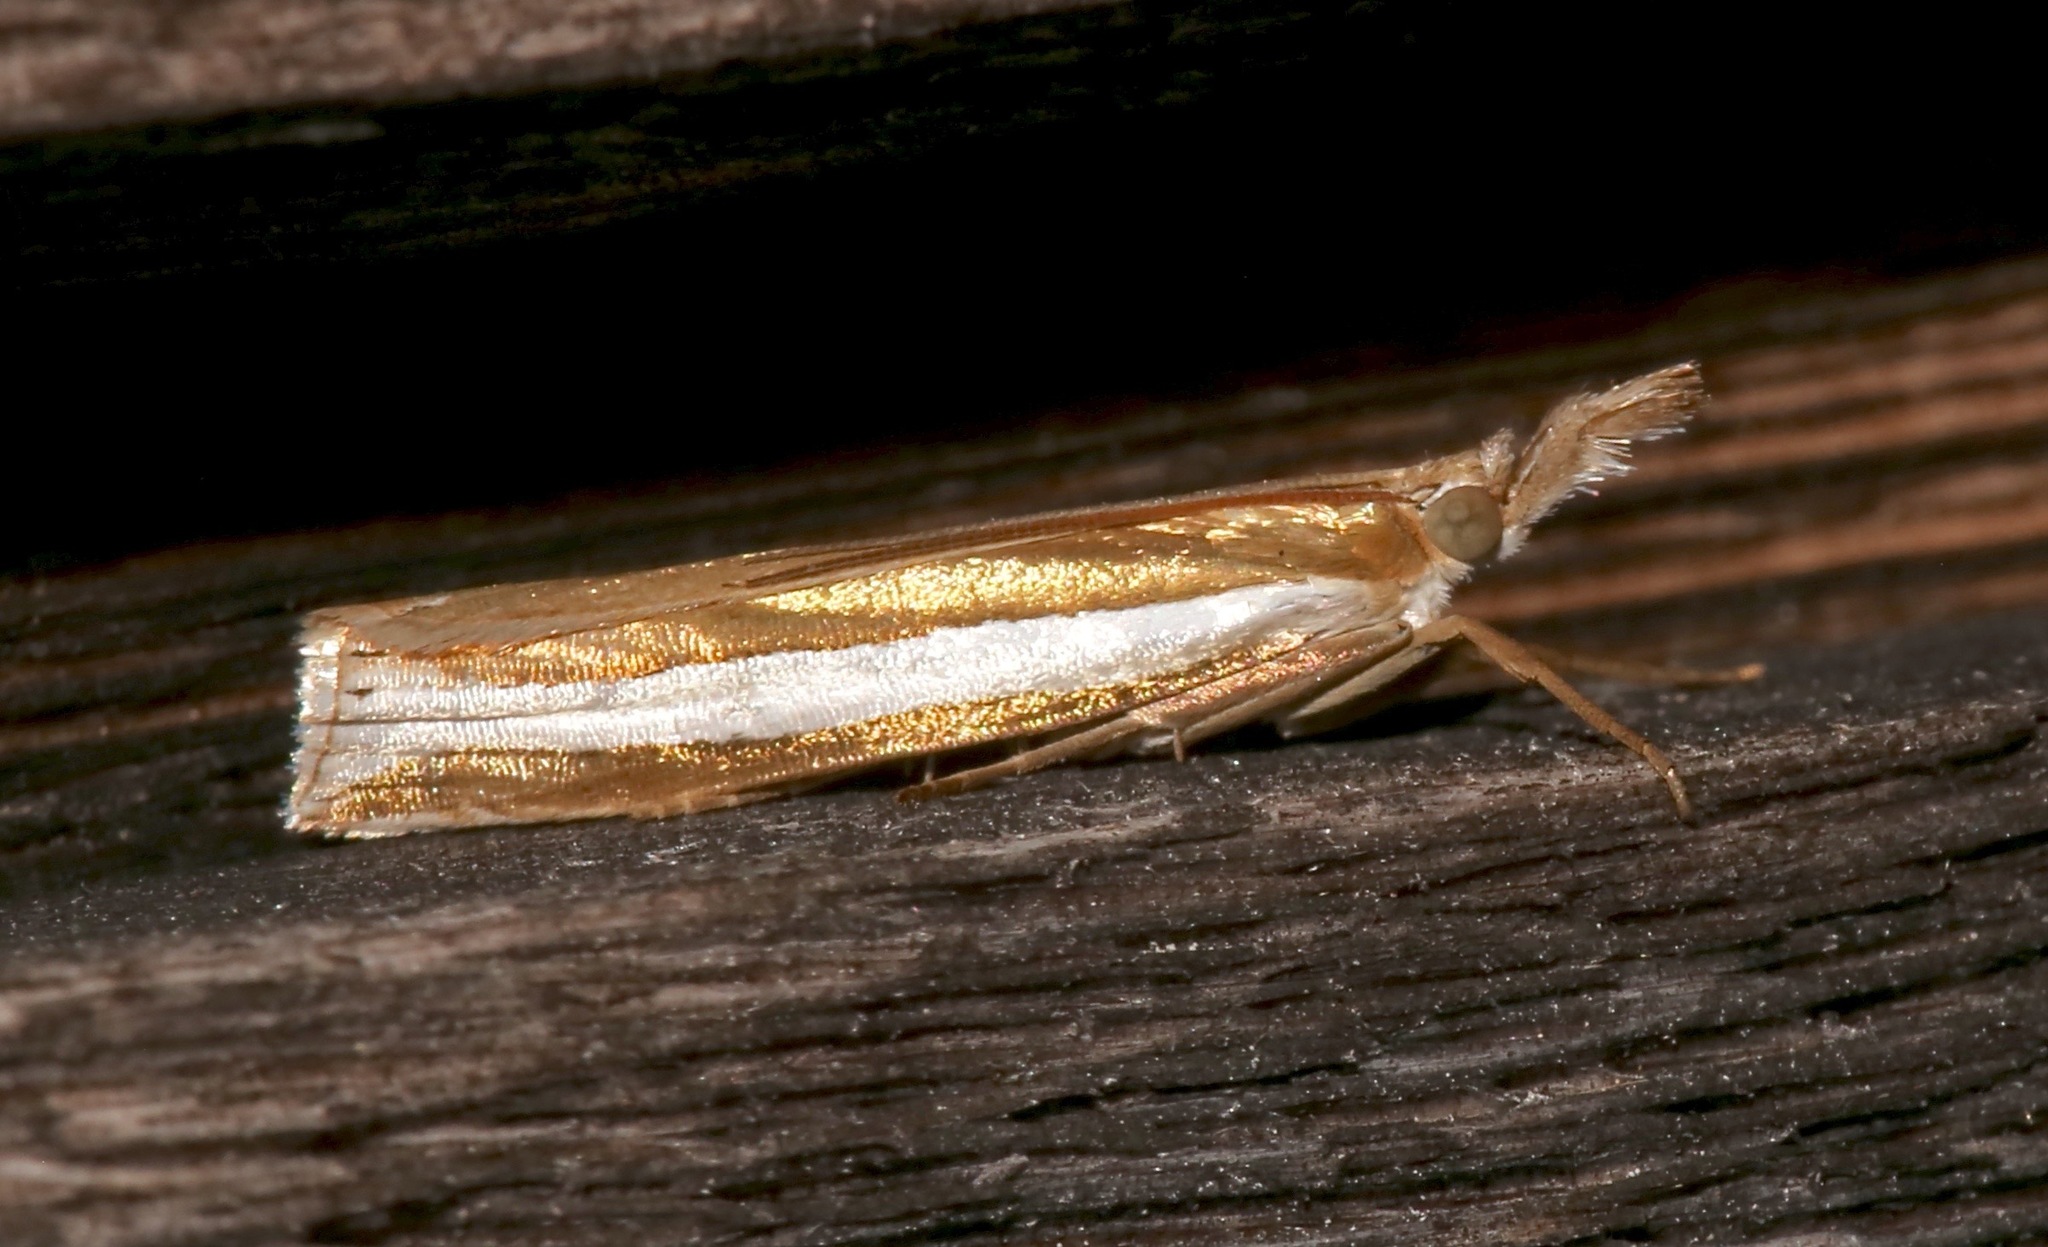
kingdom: Animalia
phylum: Arthropoda
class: Insecta
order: Lepidoptera
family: Crambidae
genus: Crambus
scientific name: Crambus unistriatellus
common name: Wide-stripe grass-veneer moth
